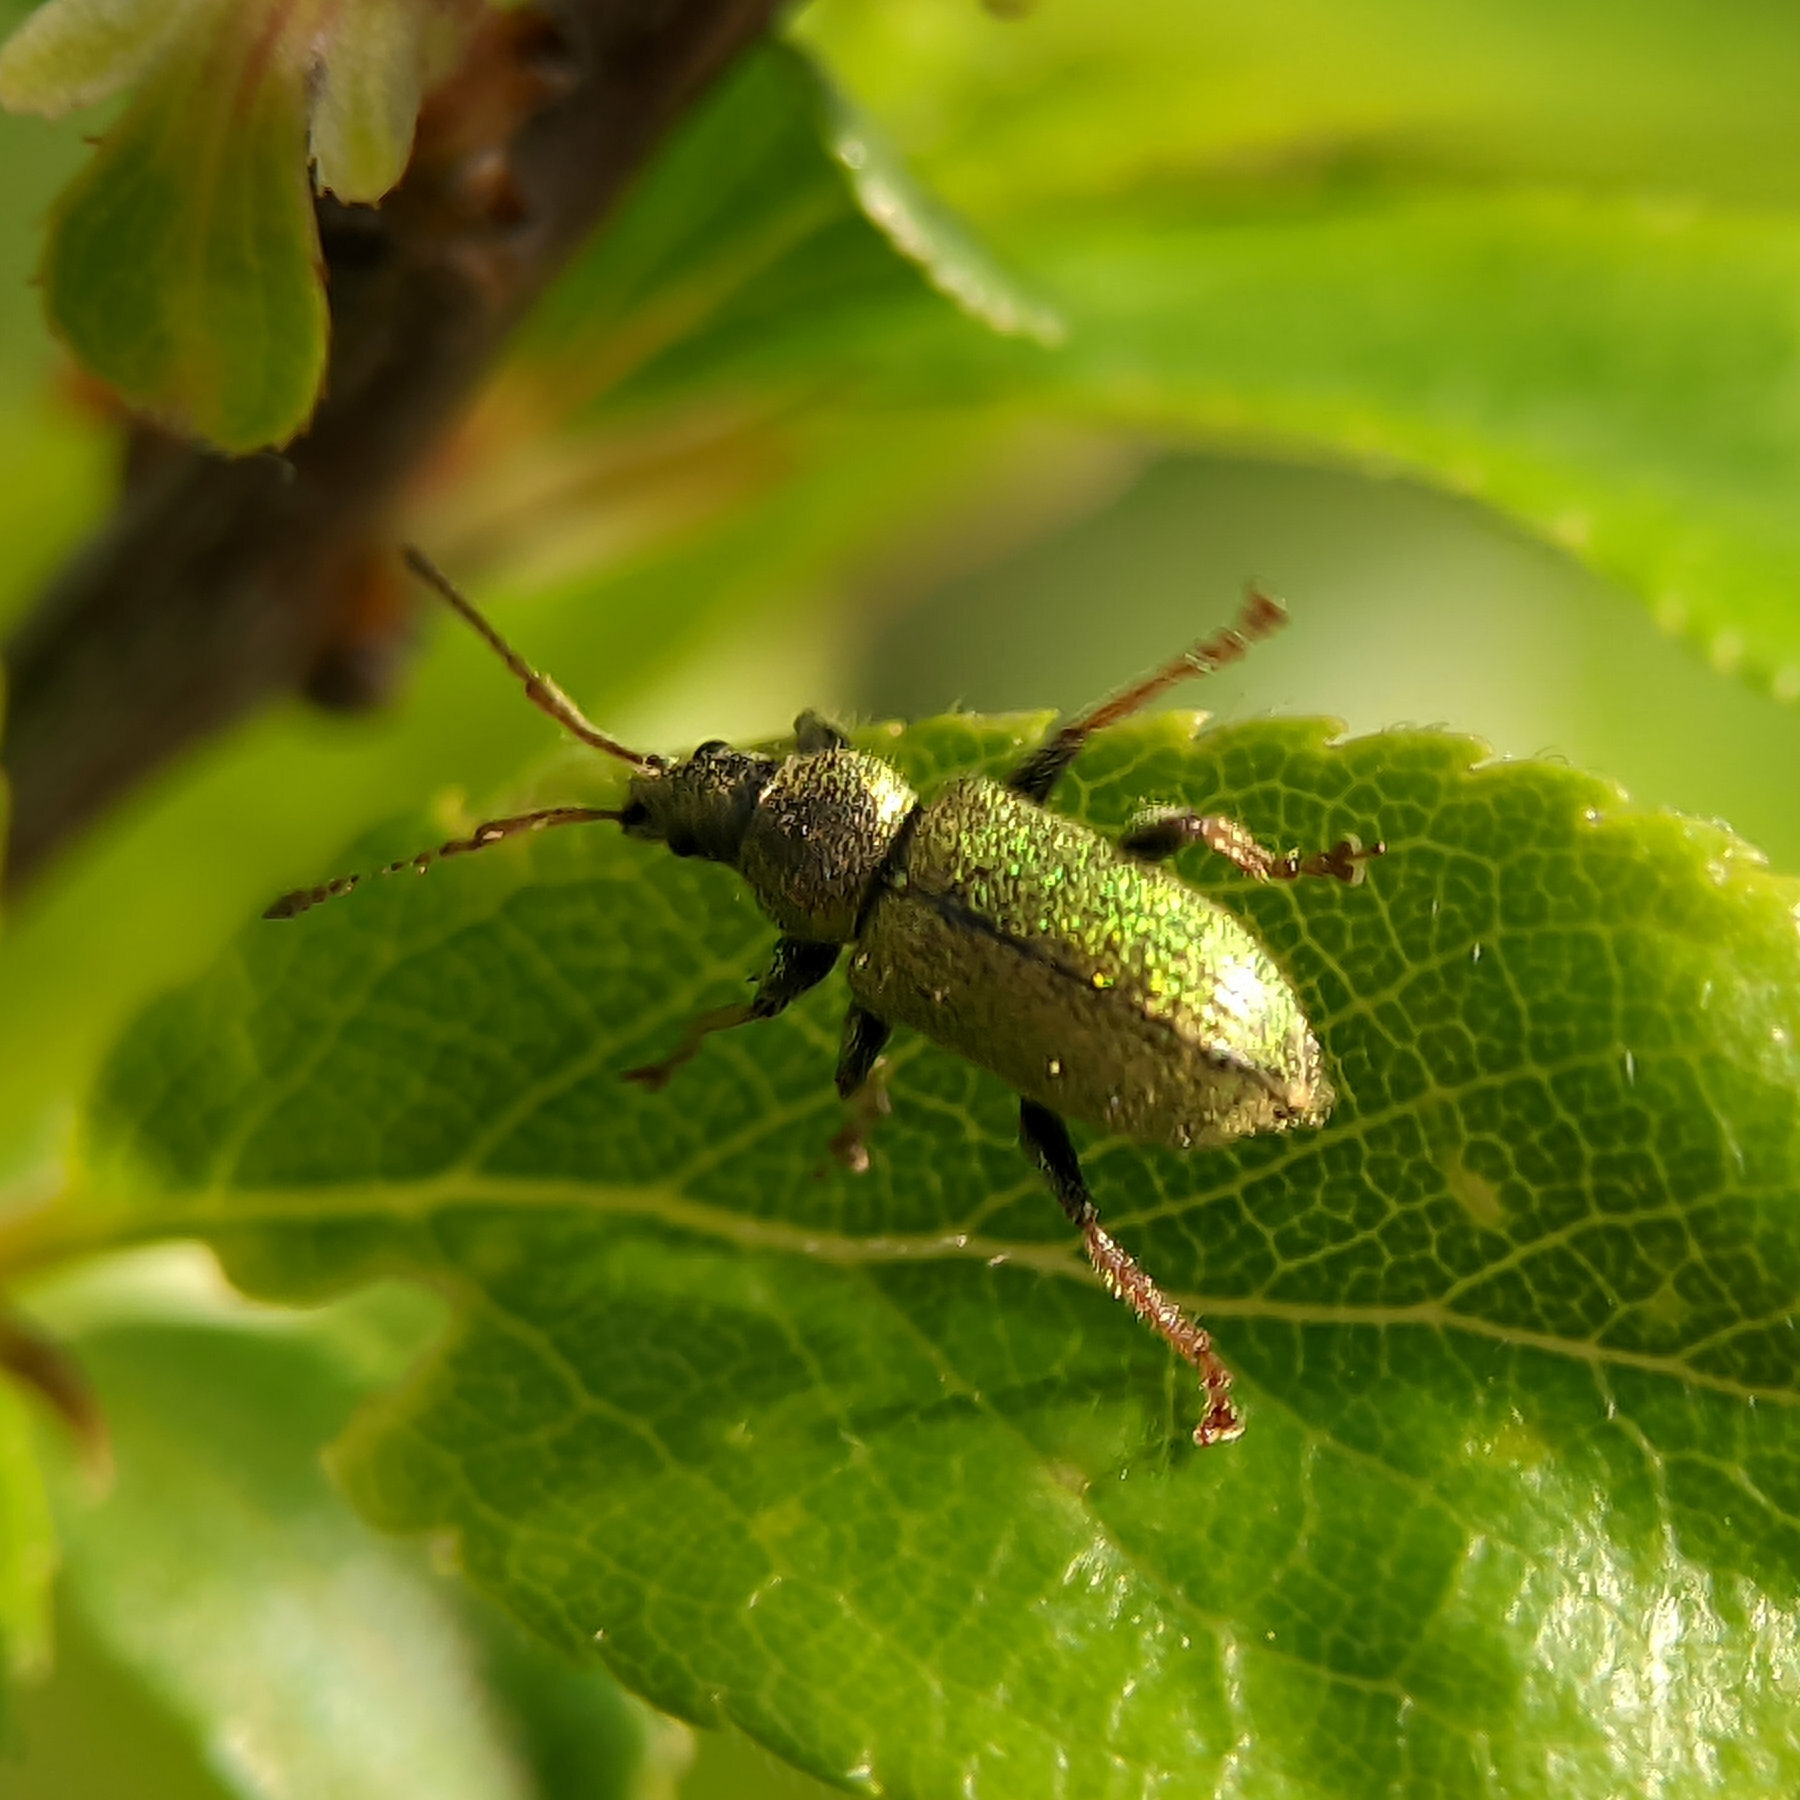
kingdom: Animalia
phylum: Arthropoda
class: Insecta
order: Coleoptera
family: Curculionidae
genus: Phyllobius
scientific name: Phyllobius betulinus
